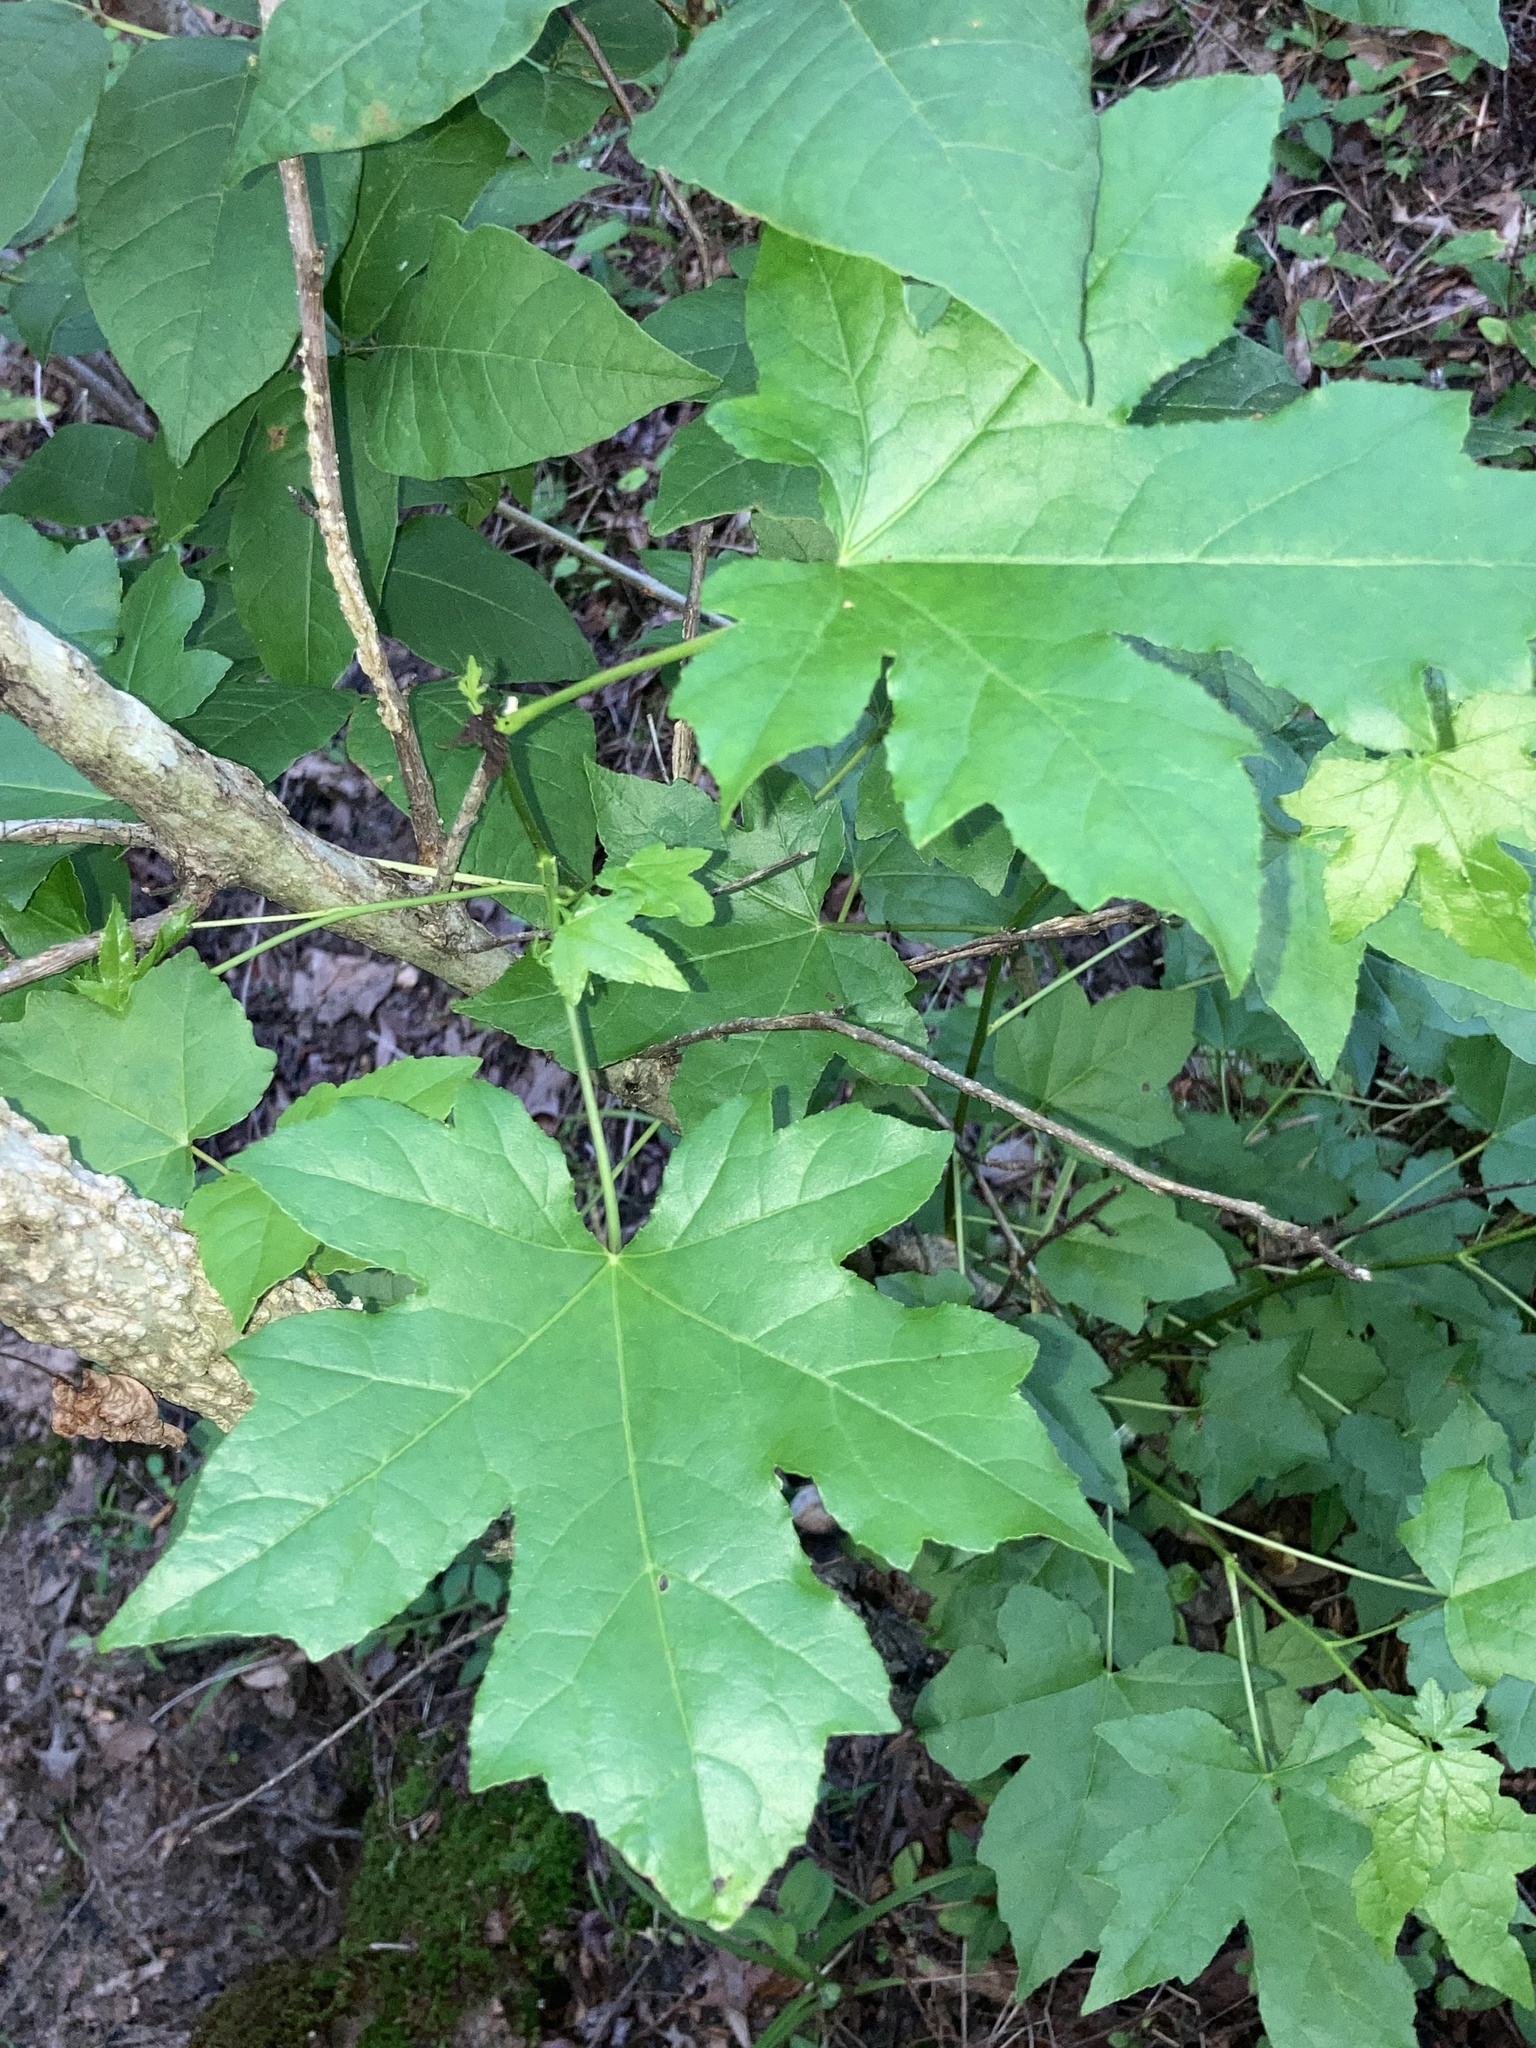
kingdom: Plantae
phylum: Tracheophyta
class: Magnoliopsida
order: Saxifragales
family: Altingiaceae
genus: Liquidambar
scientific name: Liquidambar styraciflua
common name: Sweet gum
